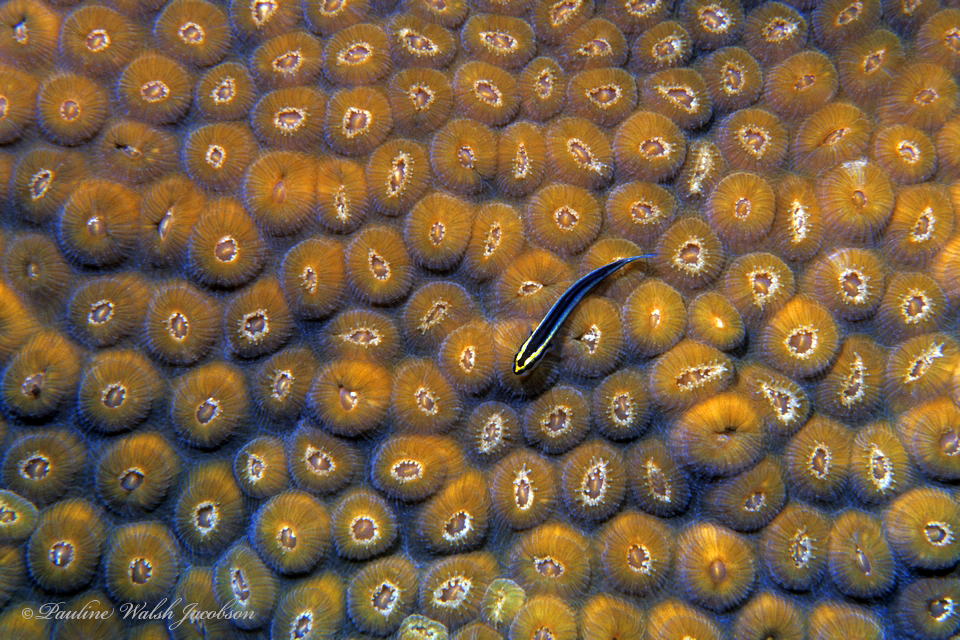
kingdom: Animalia
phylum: Chordata
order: Perciformes
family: Gobiidae
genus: Elacatinus
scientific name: Elacatinus evelynae
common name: Sharknose goby
